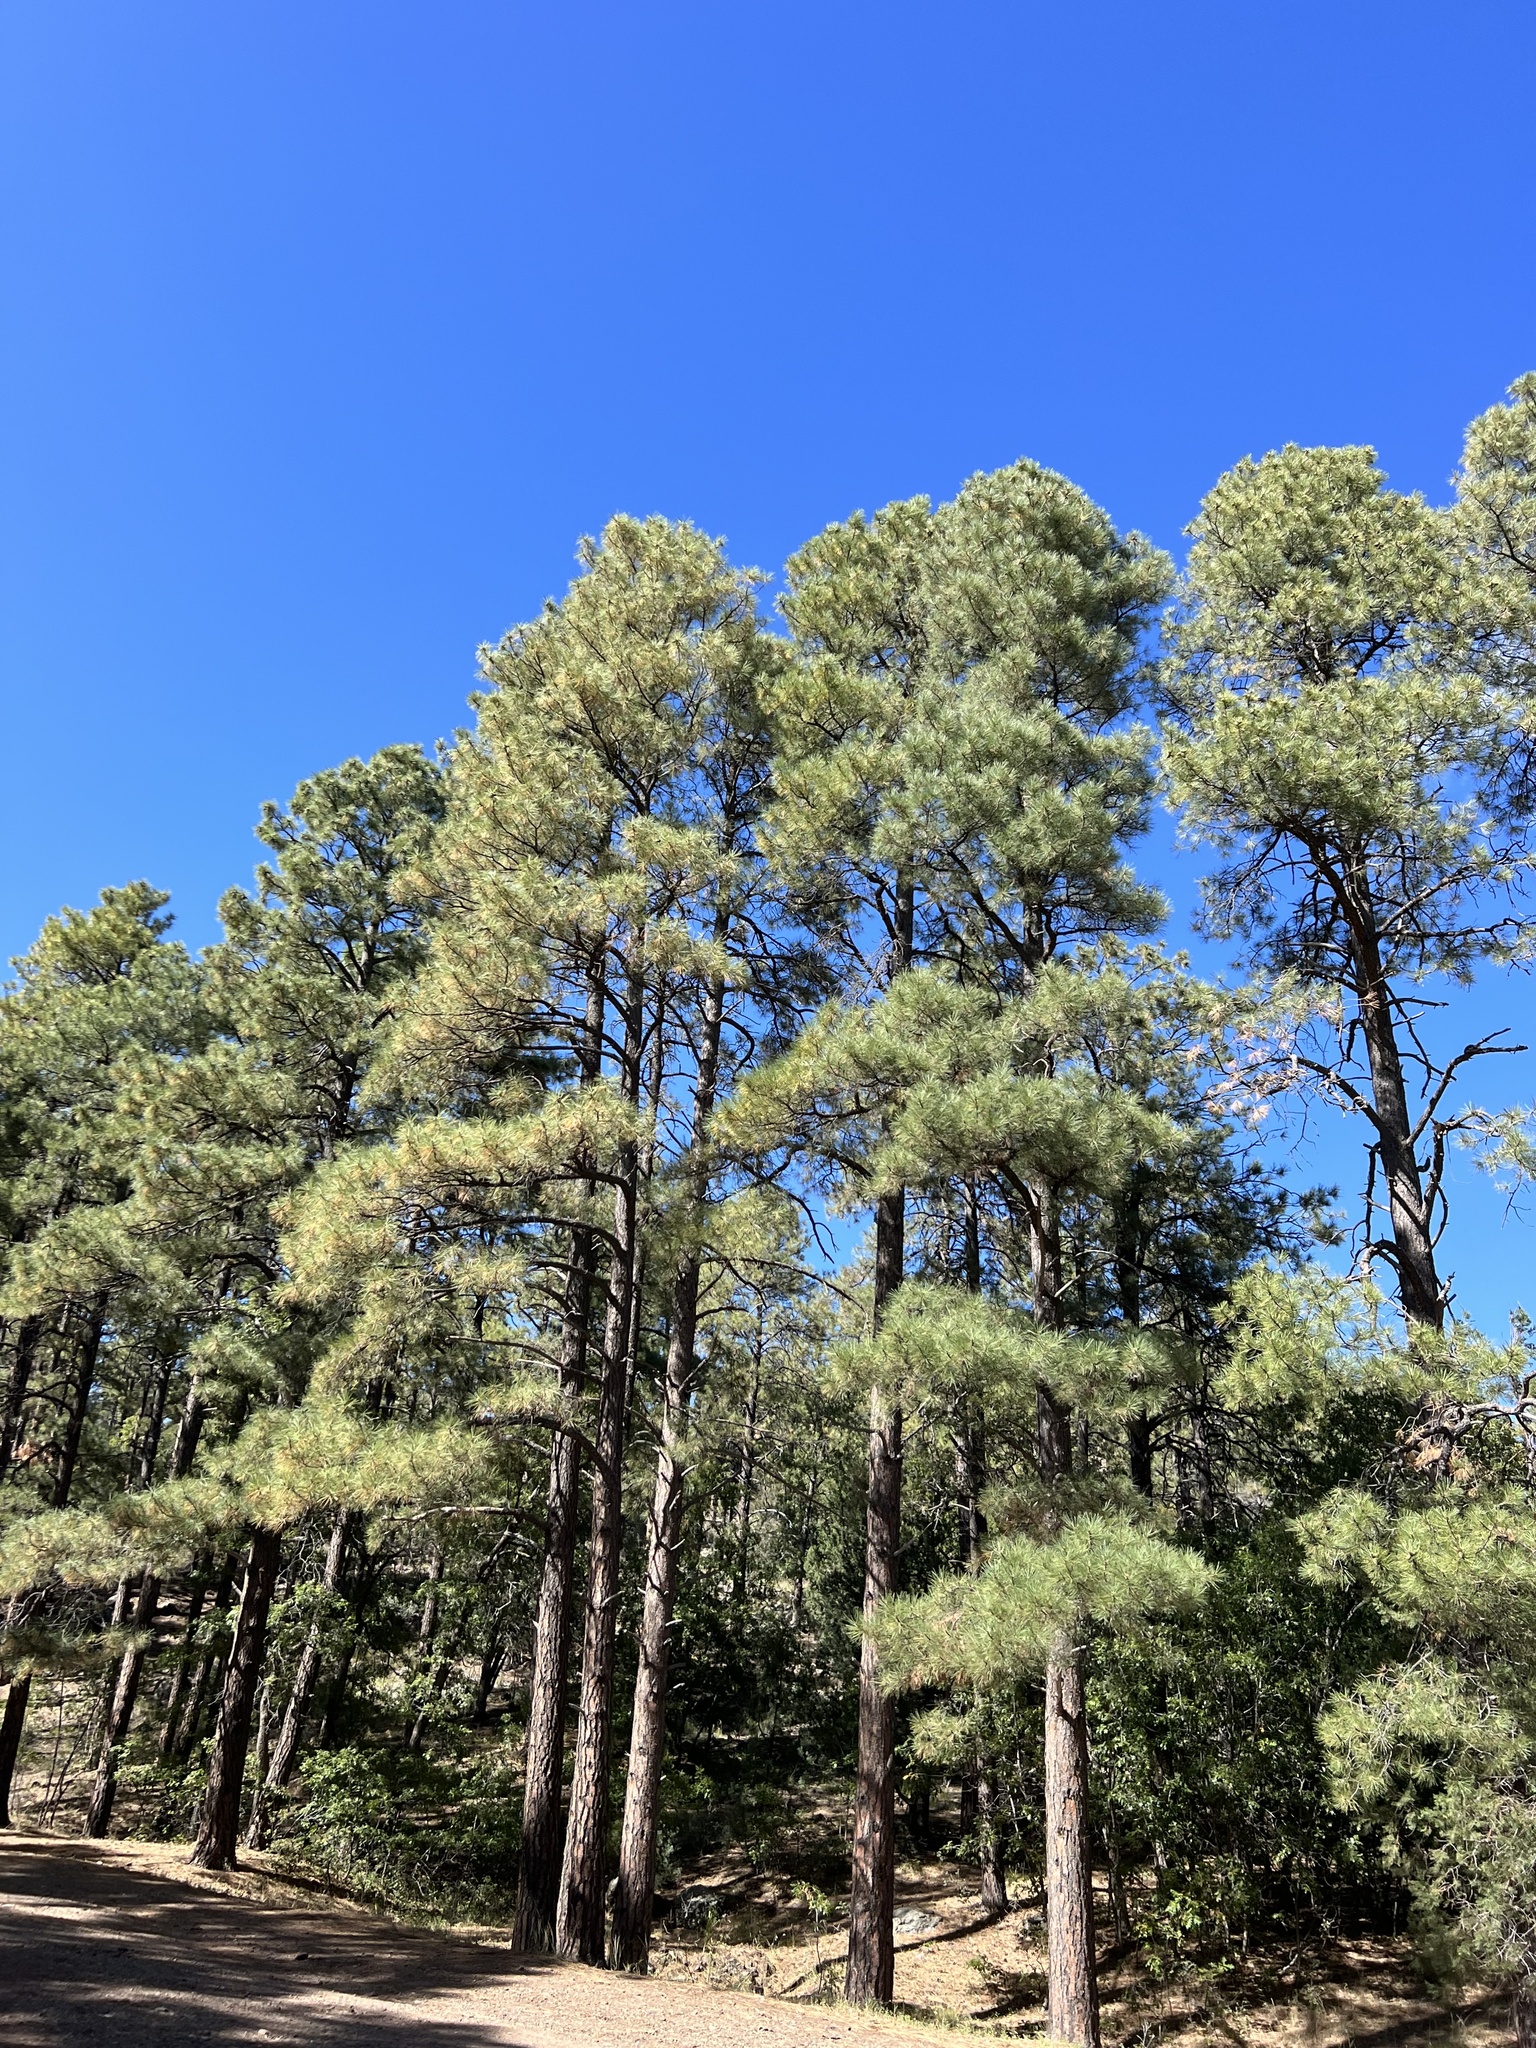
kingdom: Plantae
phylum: Tracheophyta
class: Pinopsida
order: Pinales
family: Pinaceae
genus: Pinus
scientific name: Pinus ponderosa
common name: Western yellow-pine
